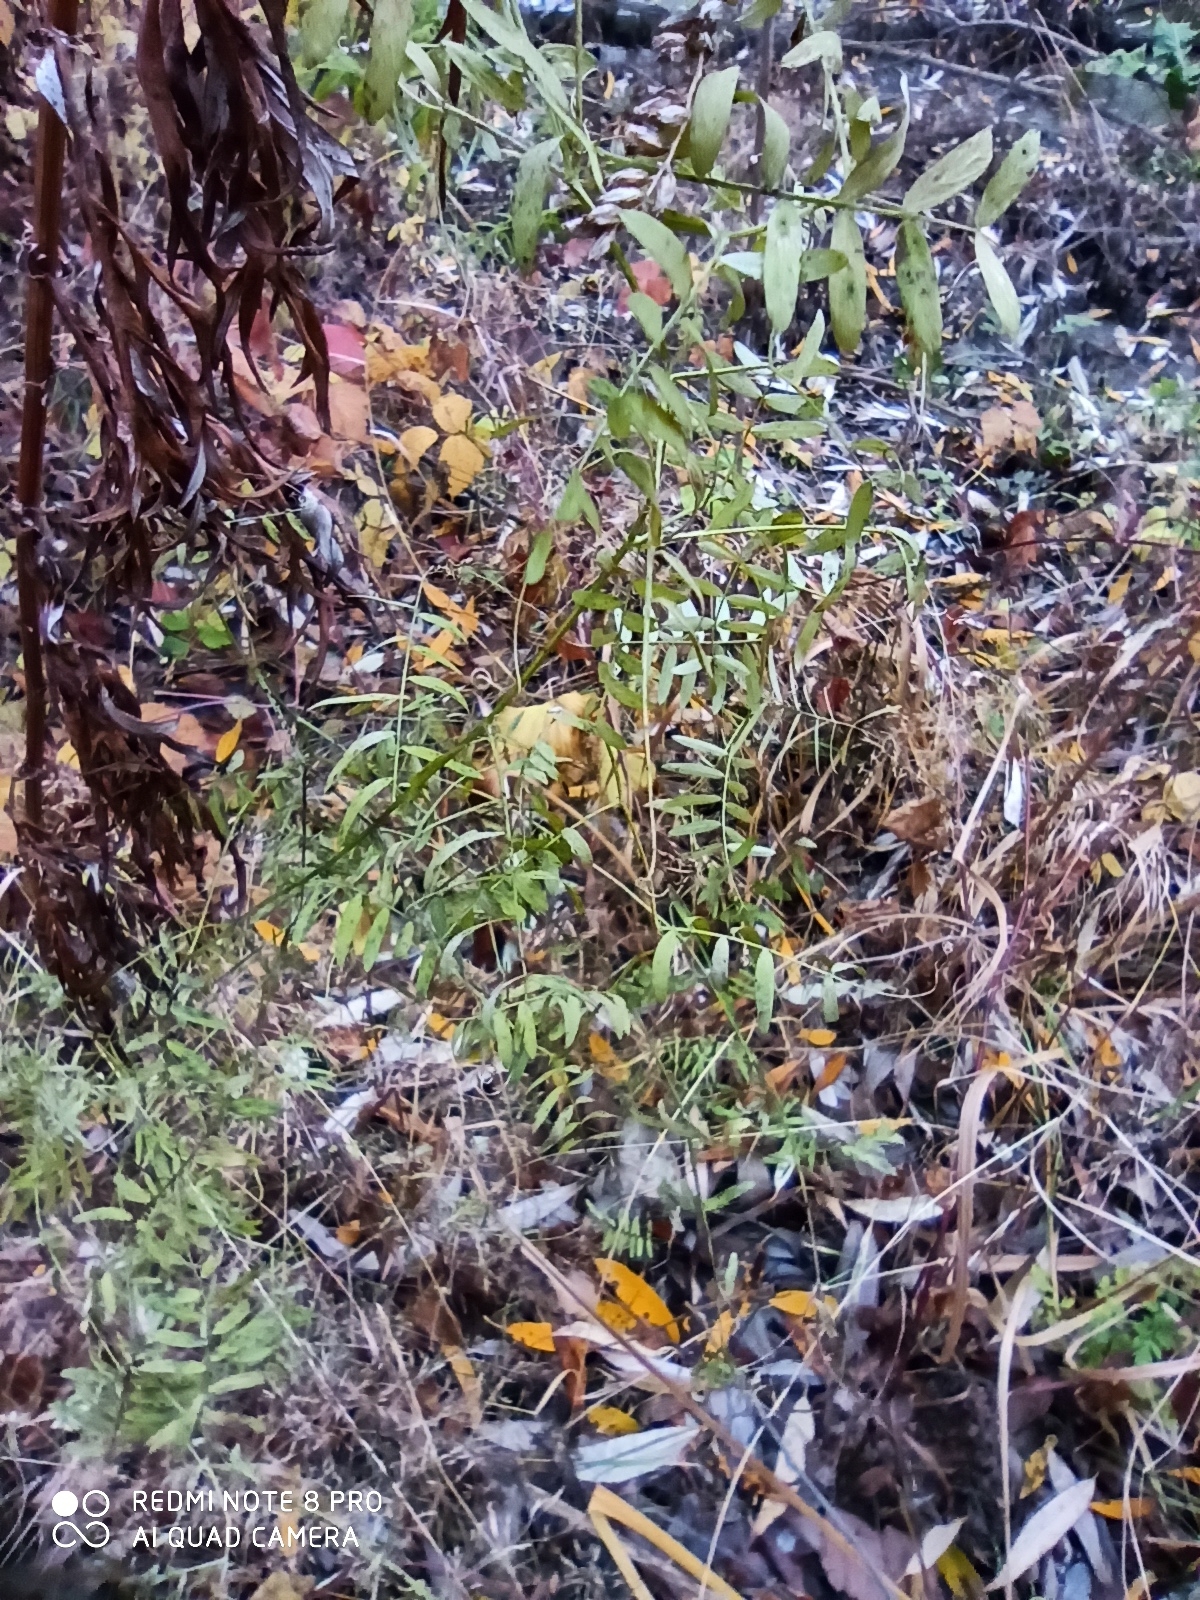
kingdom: Plantae
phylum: Tracheophyta
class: Magnoliopsida
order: Fabales
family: Fabaceae
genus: Vicia
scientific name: Vicia cracca
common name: Bird vetch
